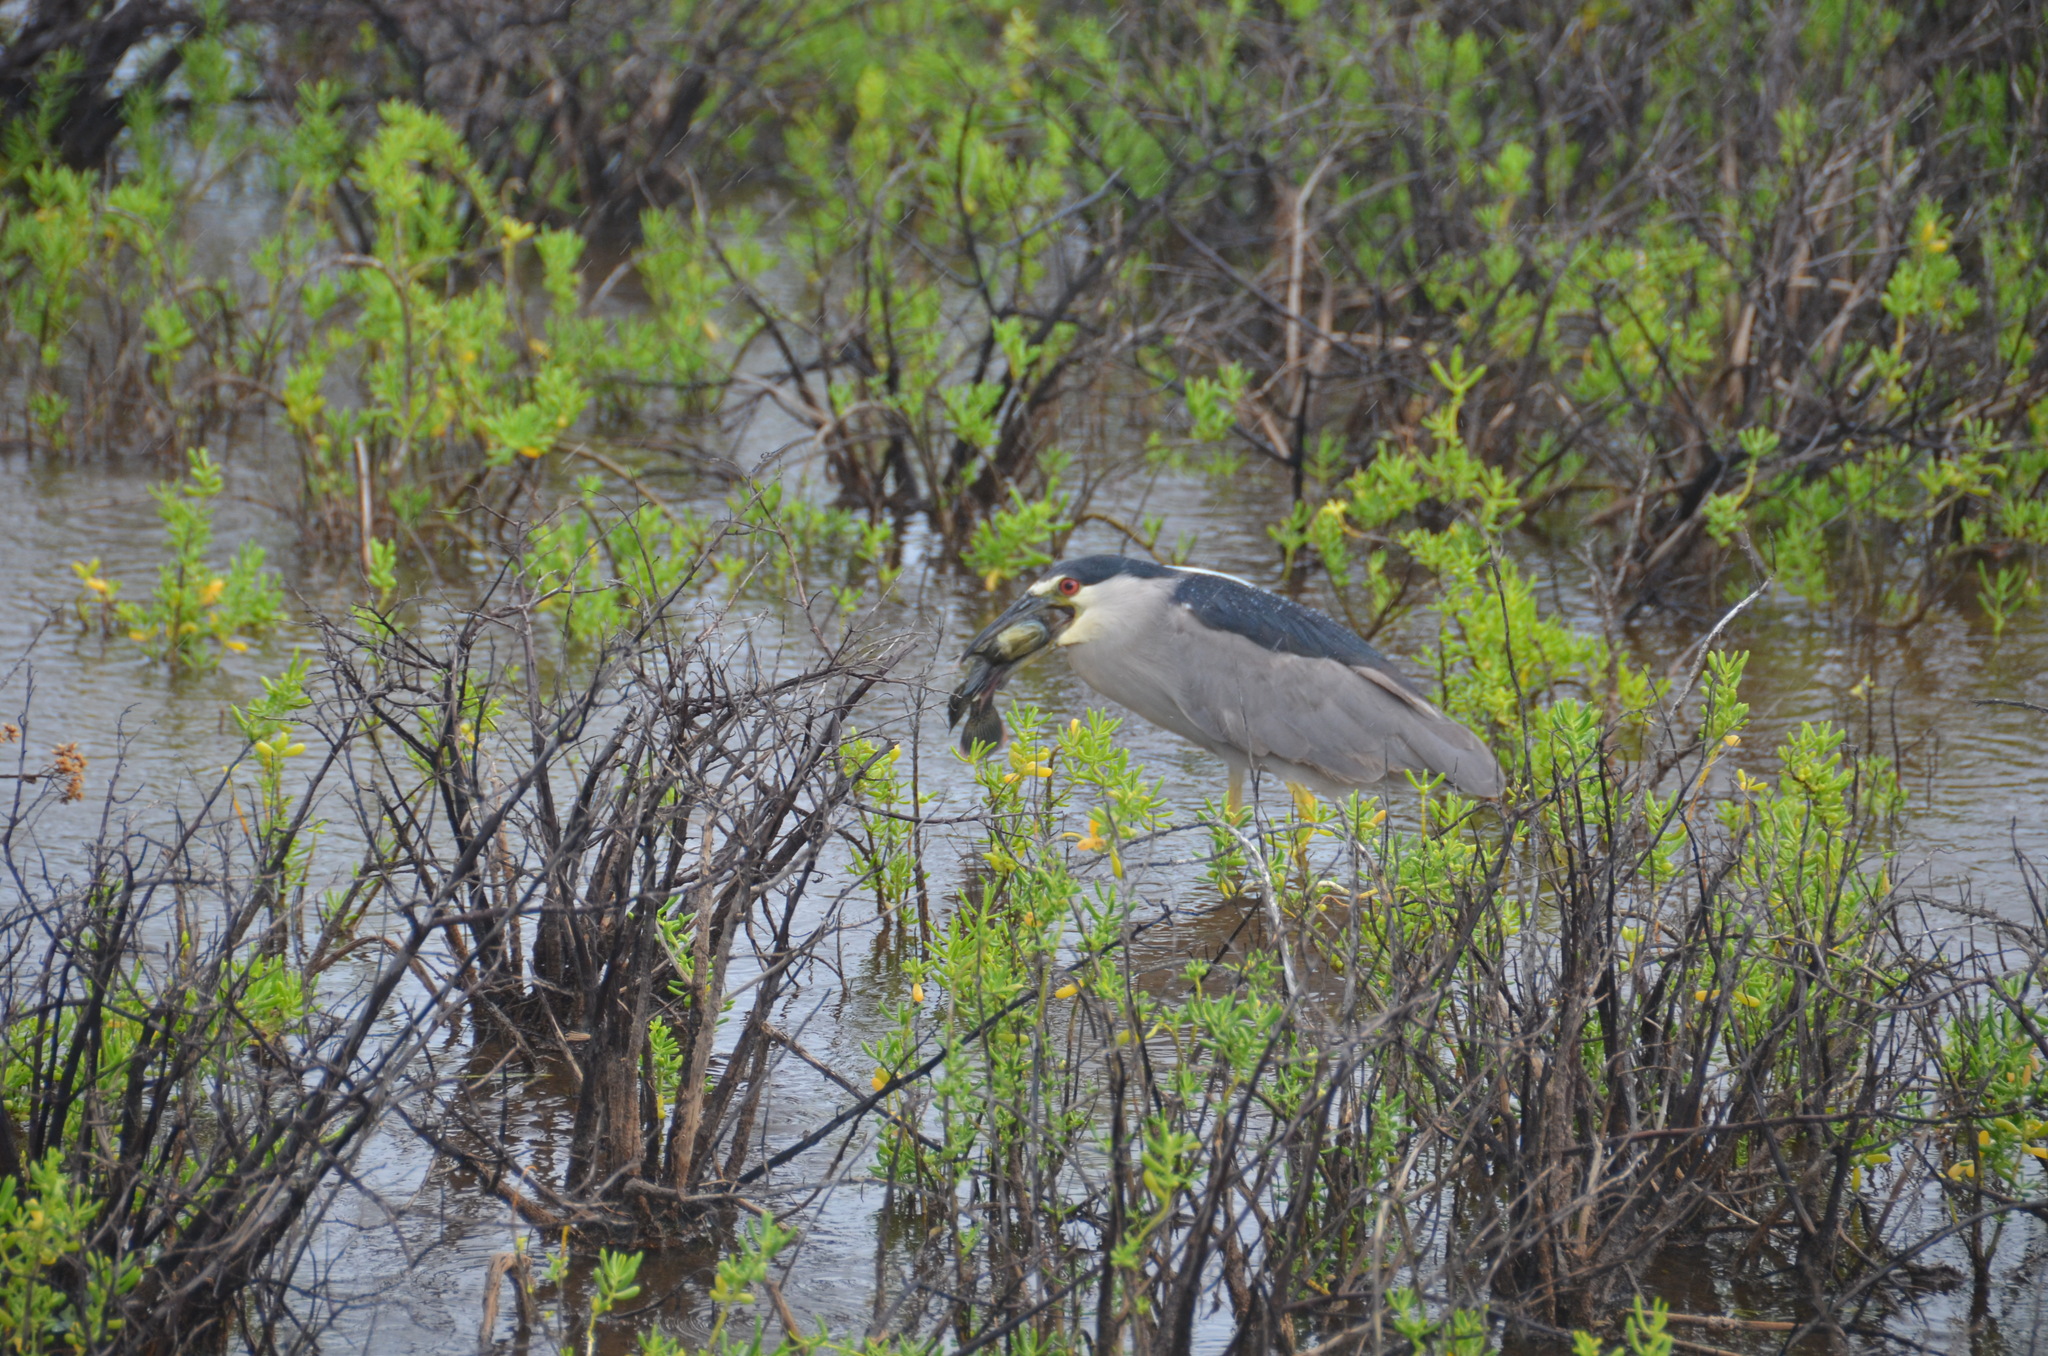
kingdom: Animalia
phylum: Chordata
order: Perciformes
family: Cichlidae
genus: Oreochromis
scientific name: Oreochromis mossambicus
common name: Mozambique tilapia
